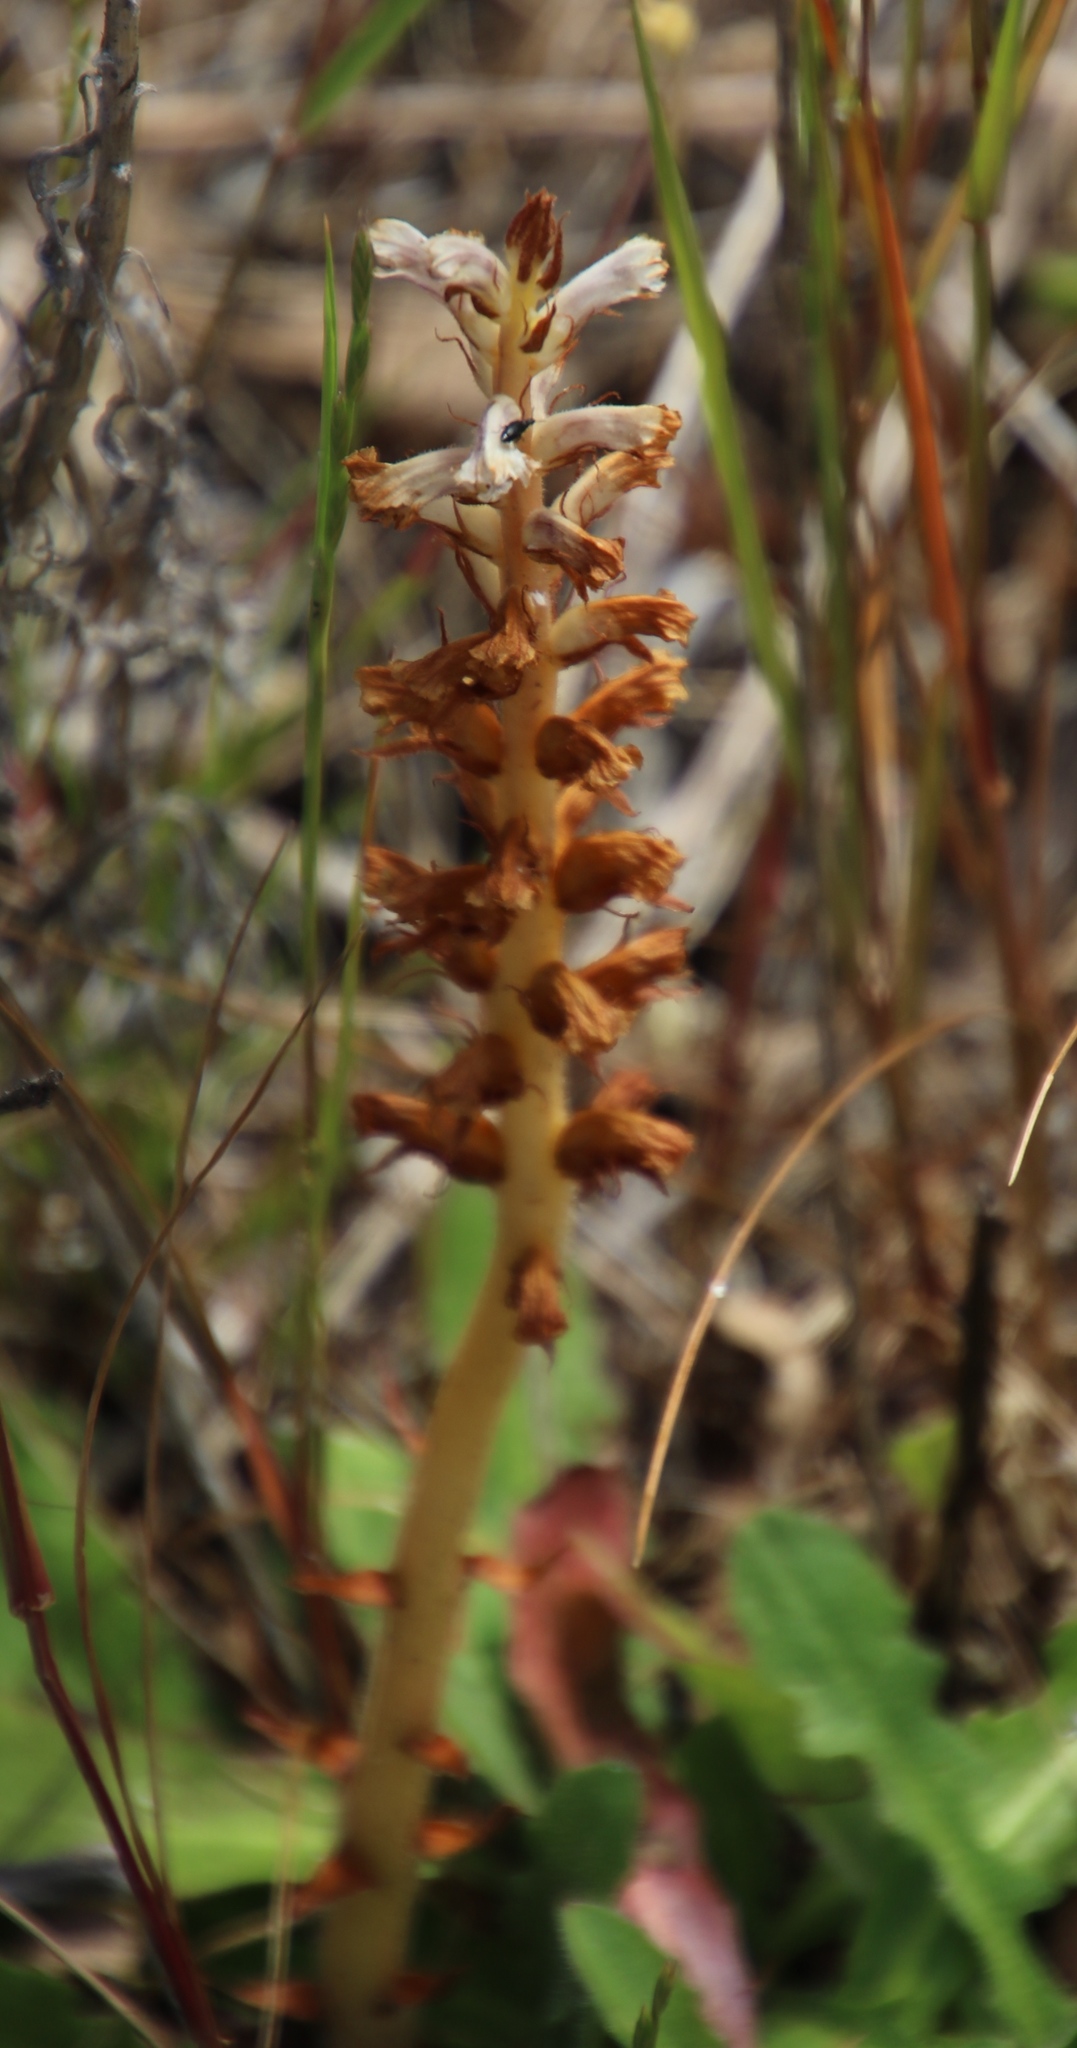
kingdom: Plantae
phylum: Tracheophyta
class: Magnoliopsida
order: Lamiales
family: Orobanchaceae
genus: Orobanche
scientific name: Orobanche minor
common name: Common broomrape
